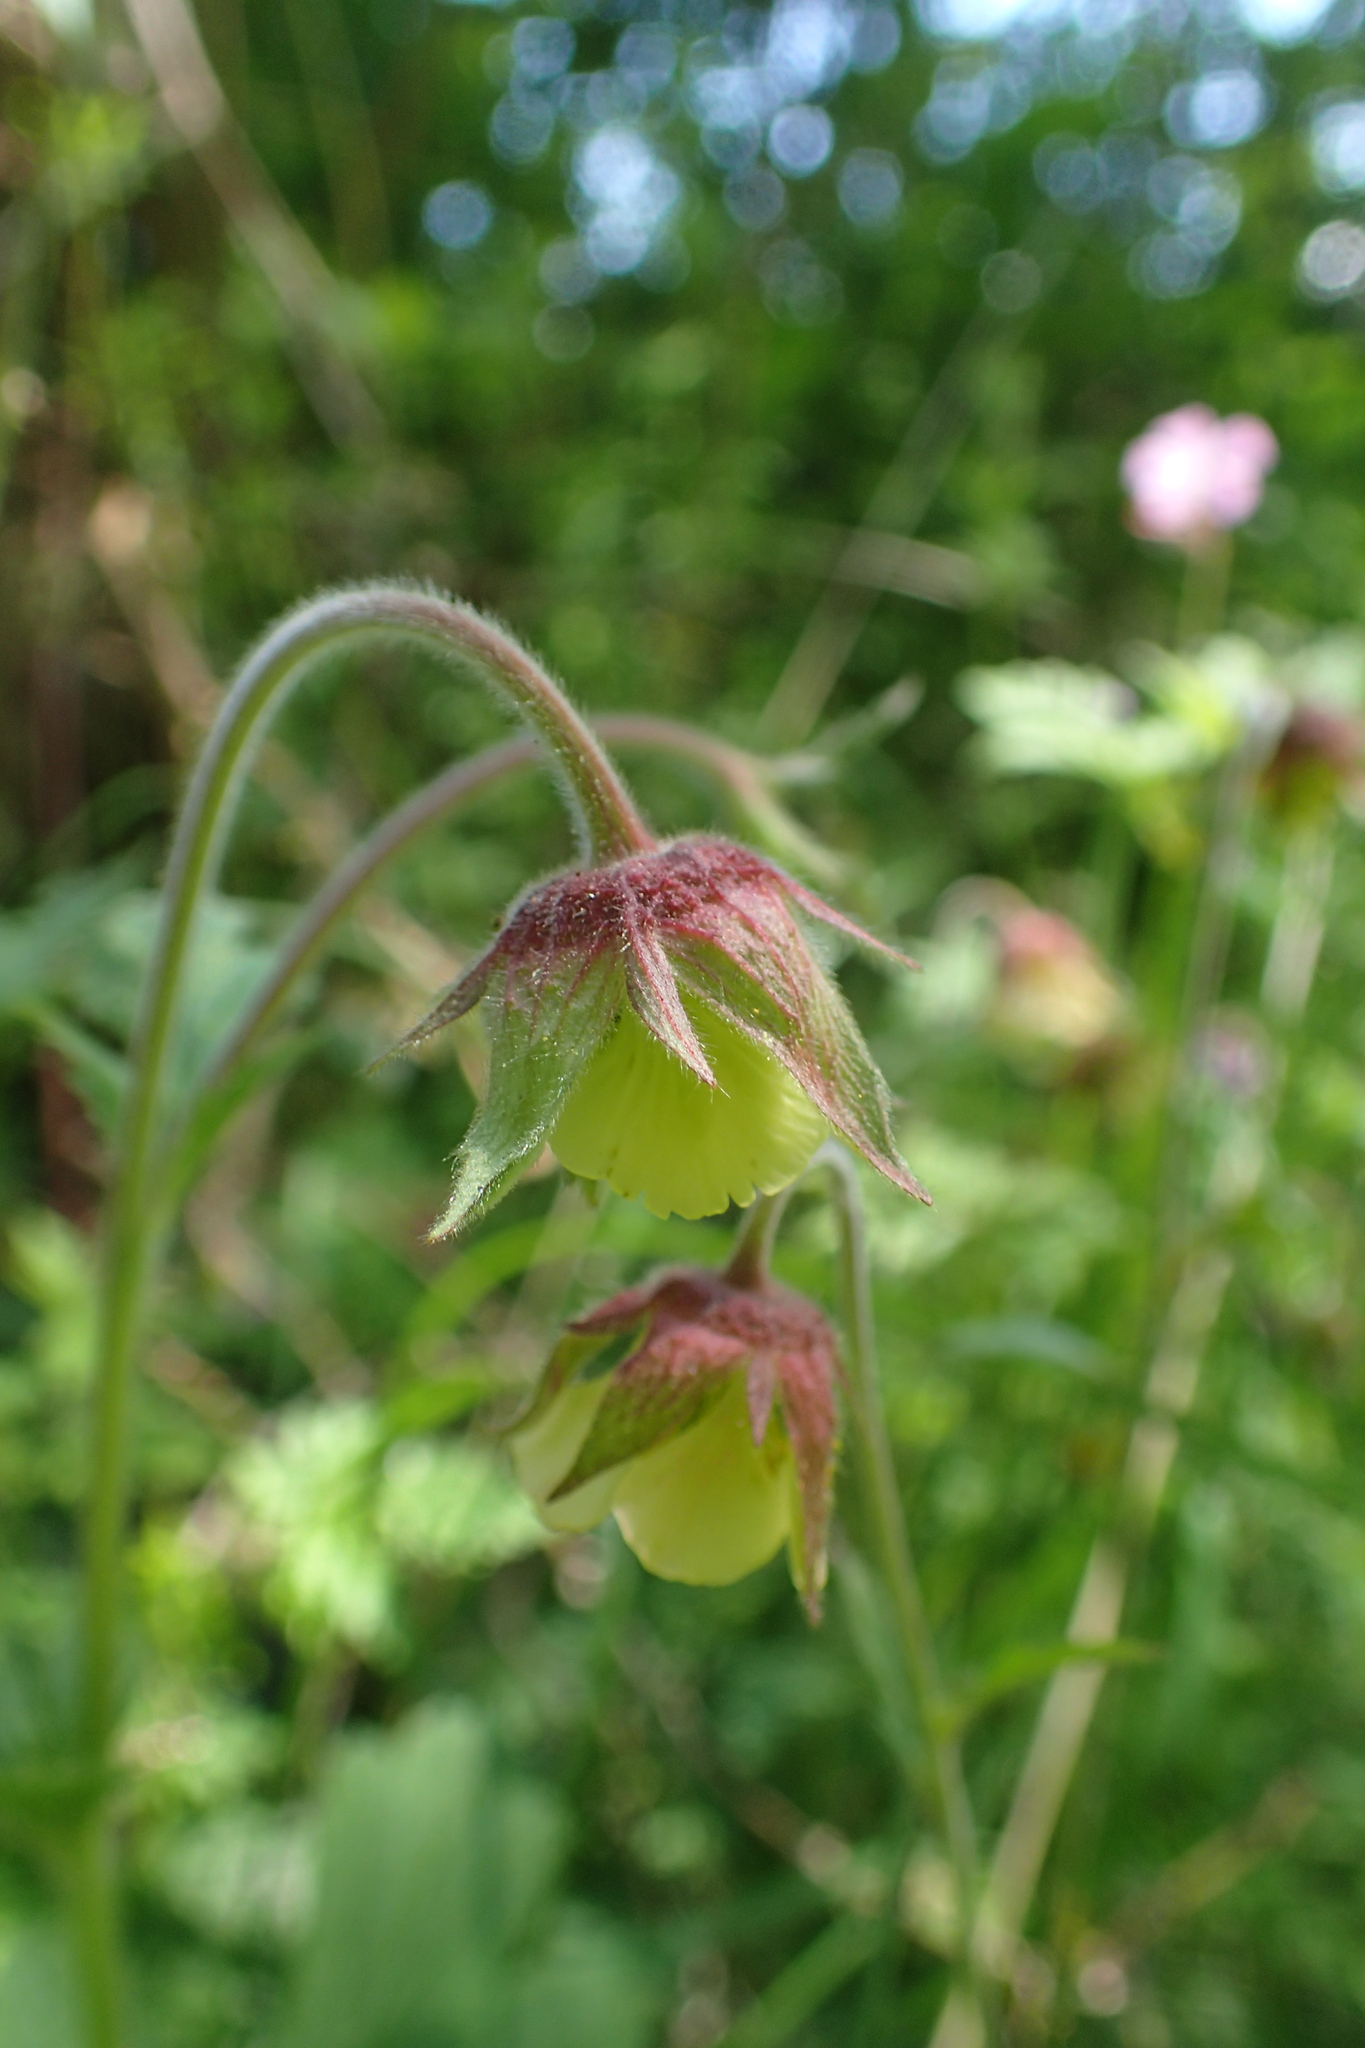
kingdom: Plantae
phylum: Tracheophyta
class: Magnoliopsida
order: Rosales
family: Rosaceae
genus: Geum
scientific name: Geum rivale
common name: Water avens
